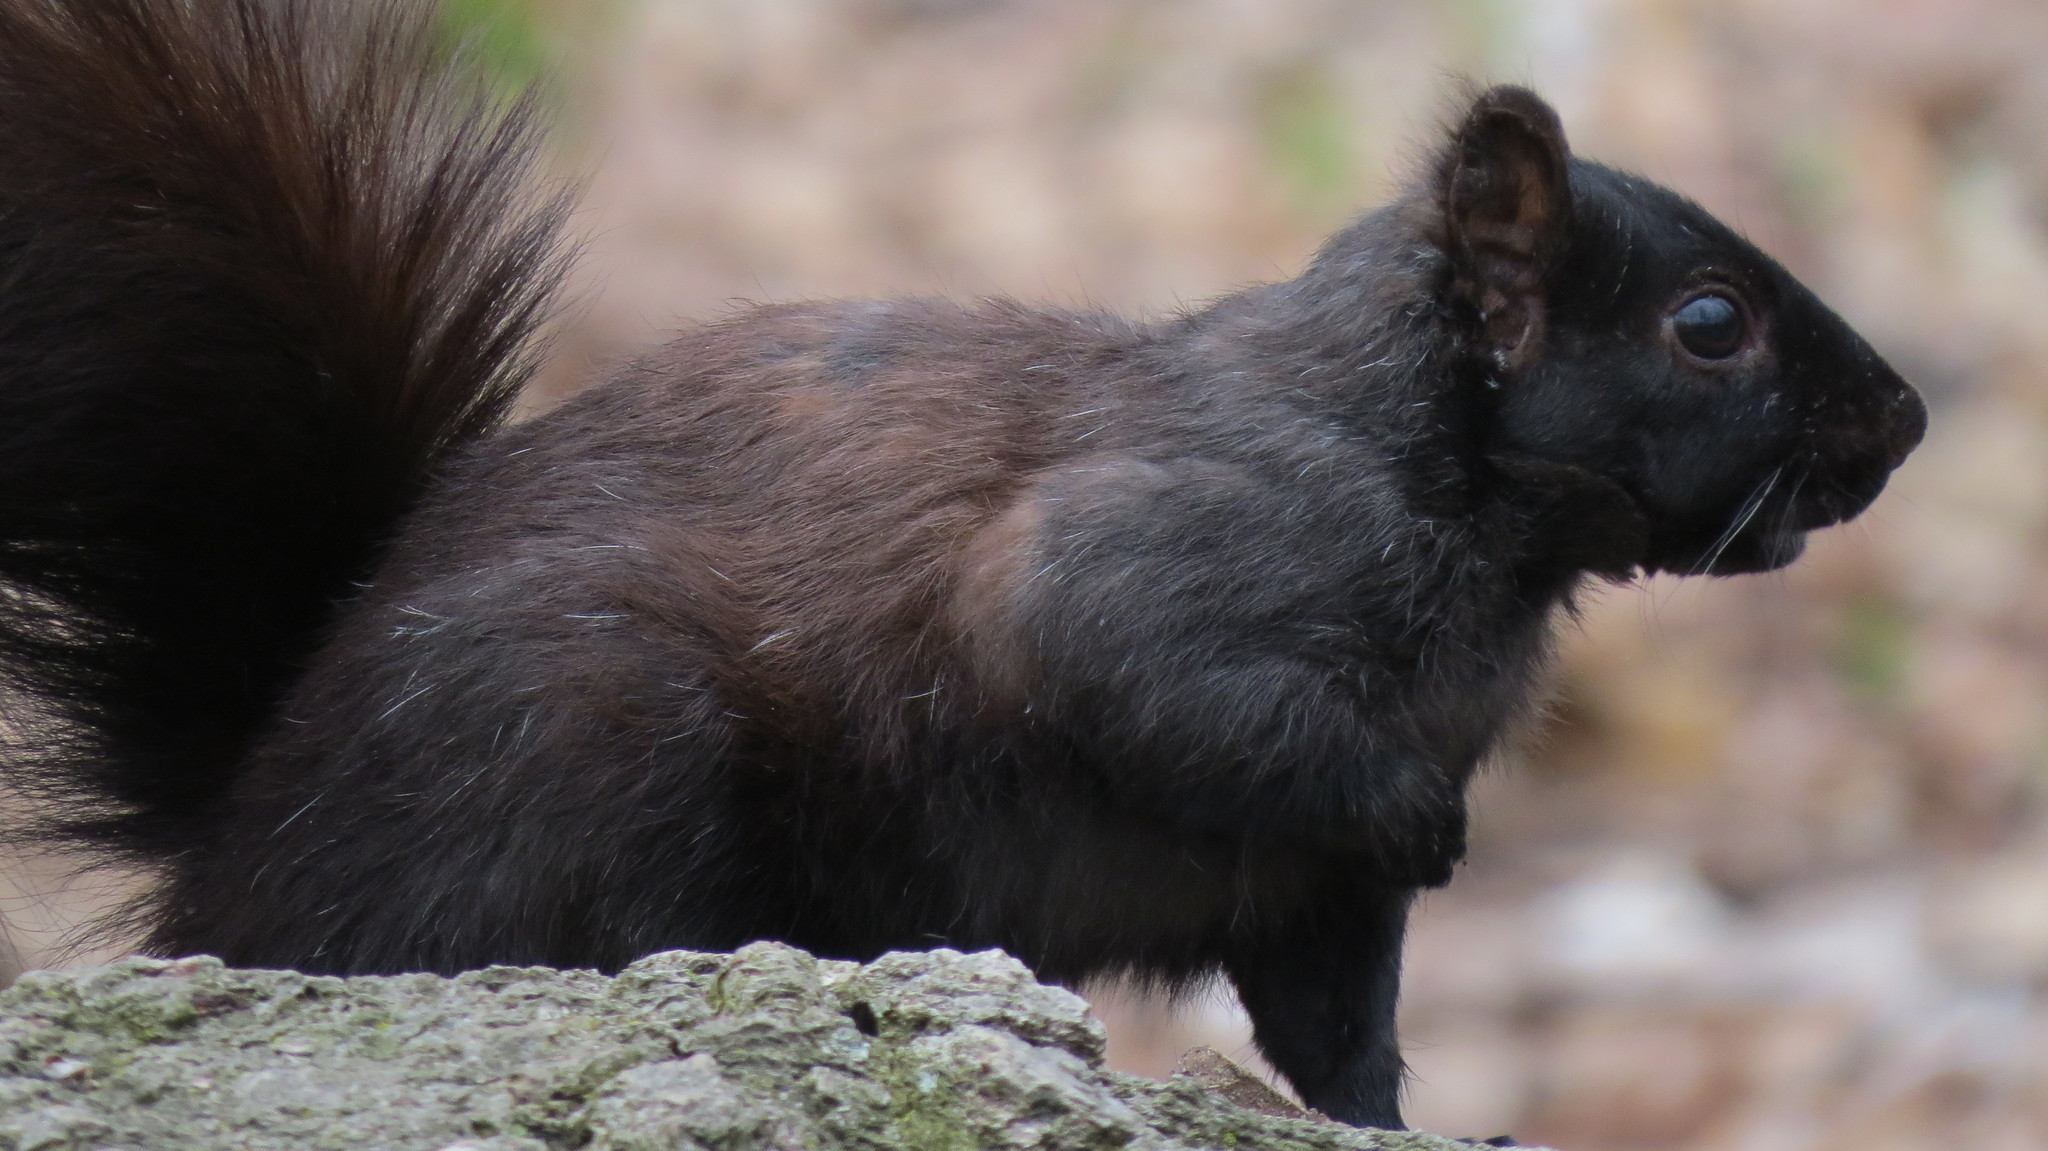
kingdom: Animalia
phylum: Chordata
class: Mammalia
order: Rodentia
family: Sciuridae
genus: Sciurus
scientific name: Sciurus carolinensis
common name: Eastern gray squirrel
